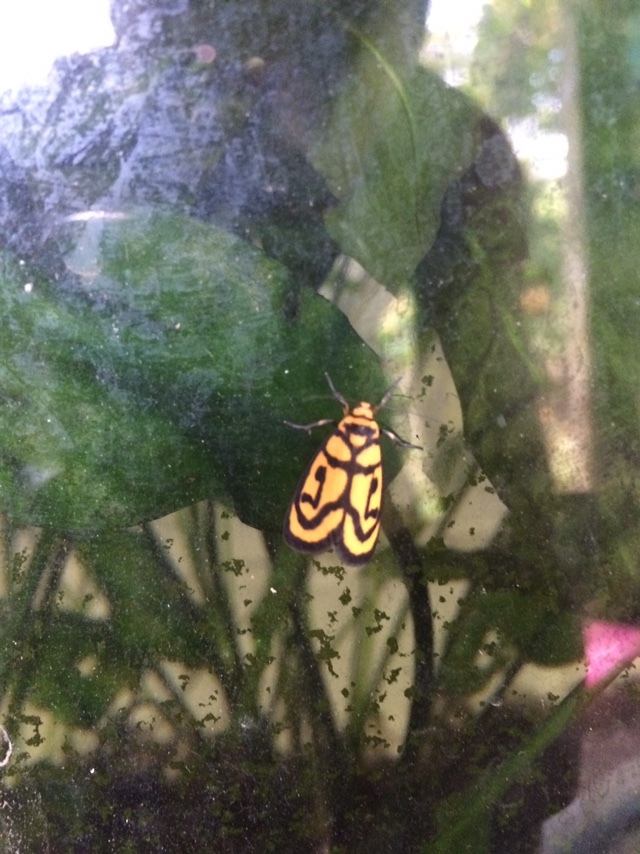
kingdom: Animalia
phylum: Arthropoda
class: Insecta
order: Lepidoptera
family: Erebidae
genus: Xanthetis
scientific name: Xanthetis luzonica
